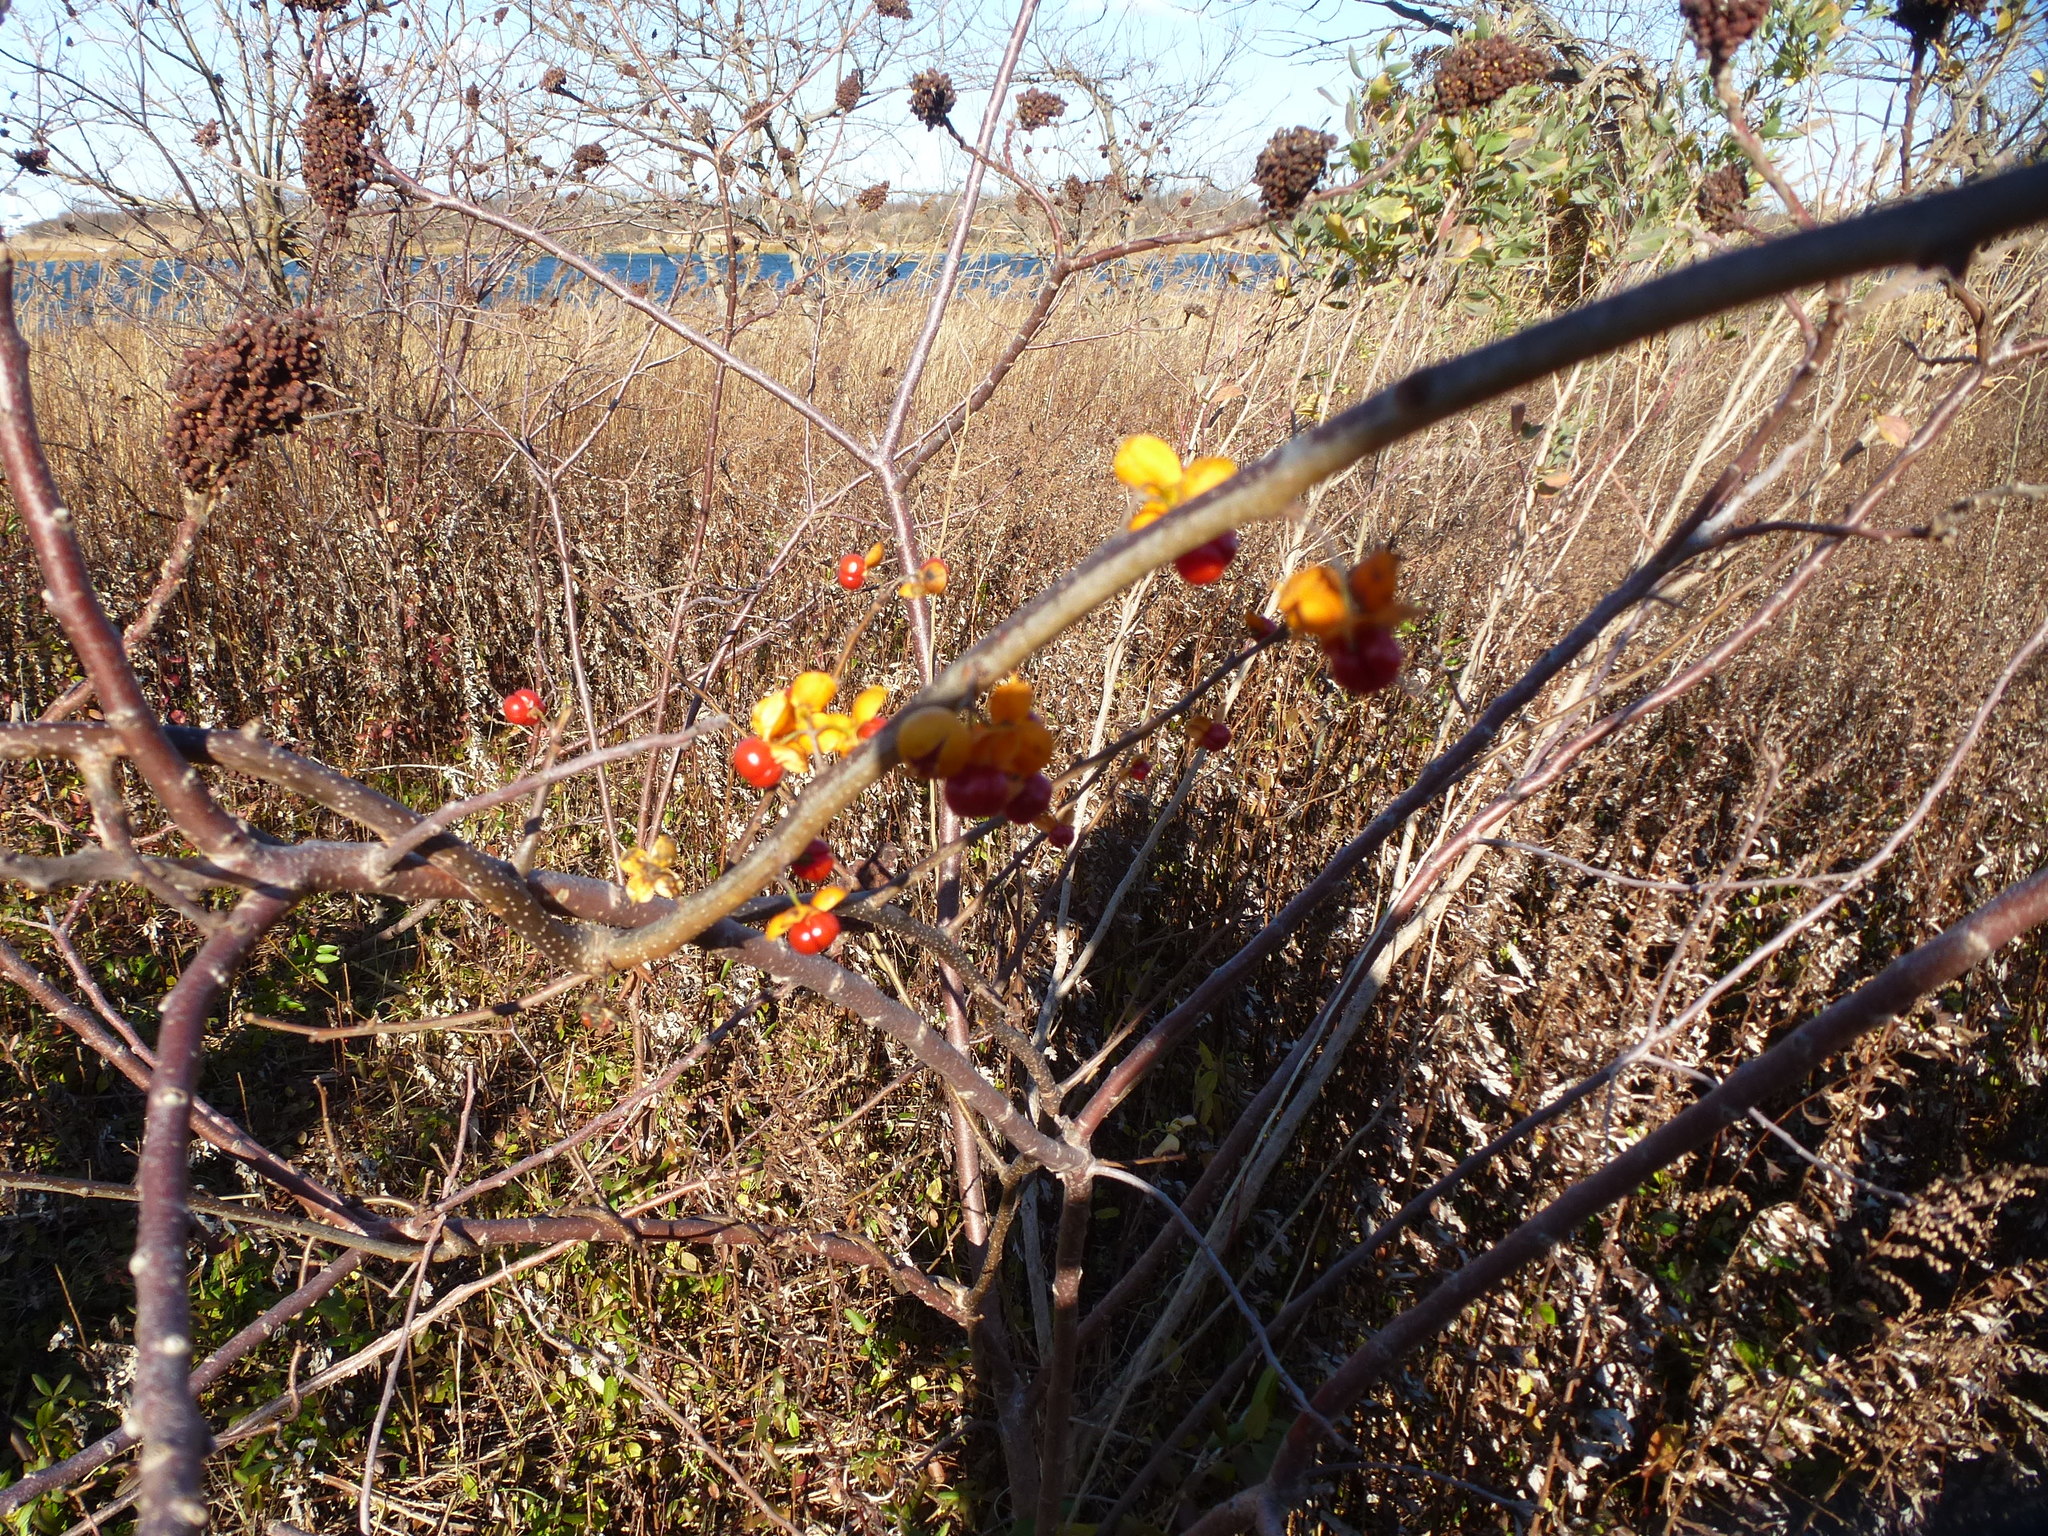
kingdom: Plantae
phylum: Tracheophyta
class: Magnoliopsida
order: Celastrales
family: Celastraceae
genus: Celastrus
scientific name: Celastrus orbiculatus
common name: Oriental bittersweet
